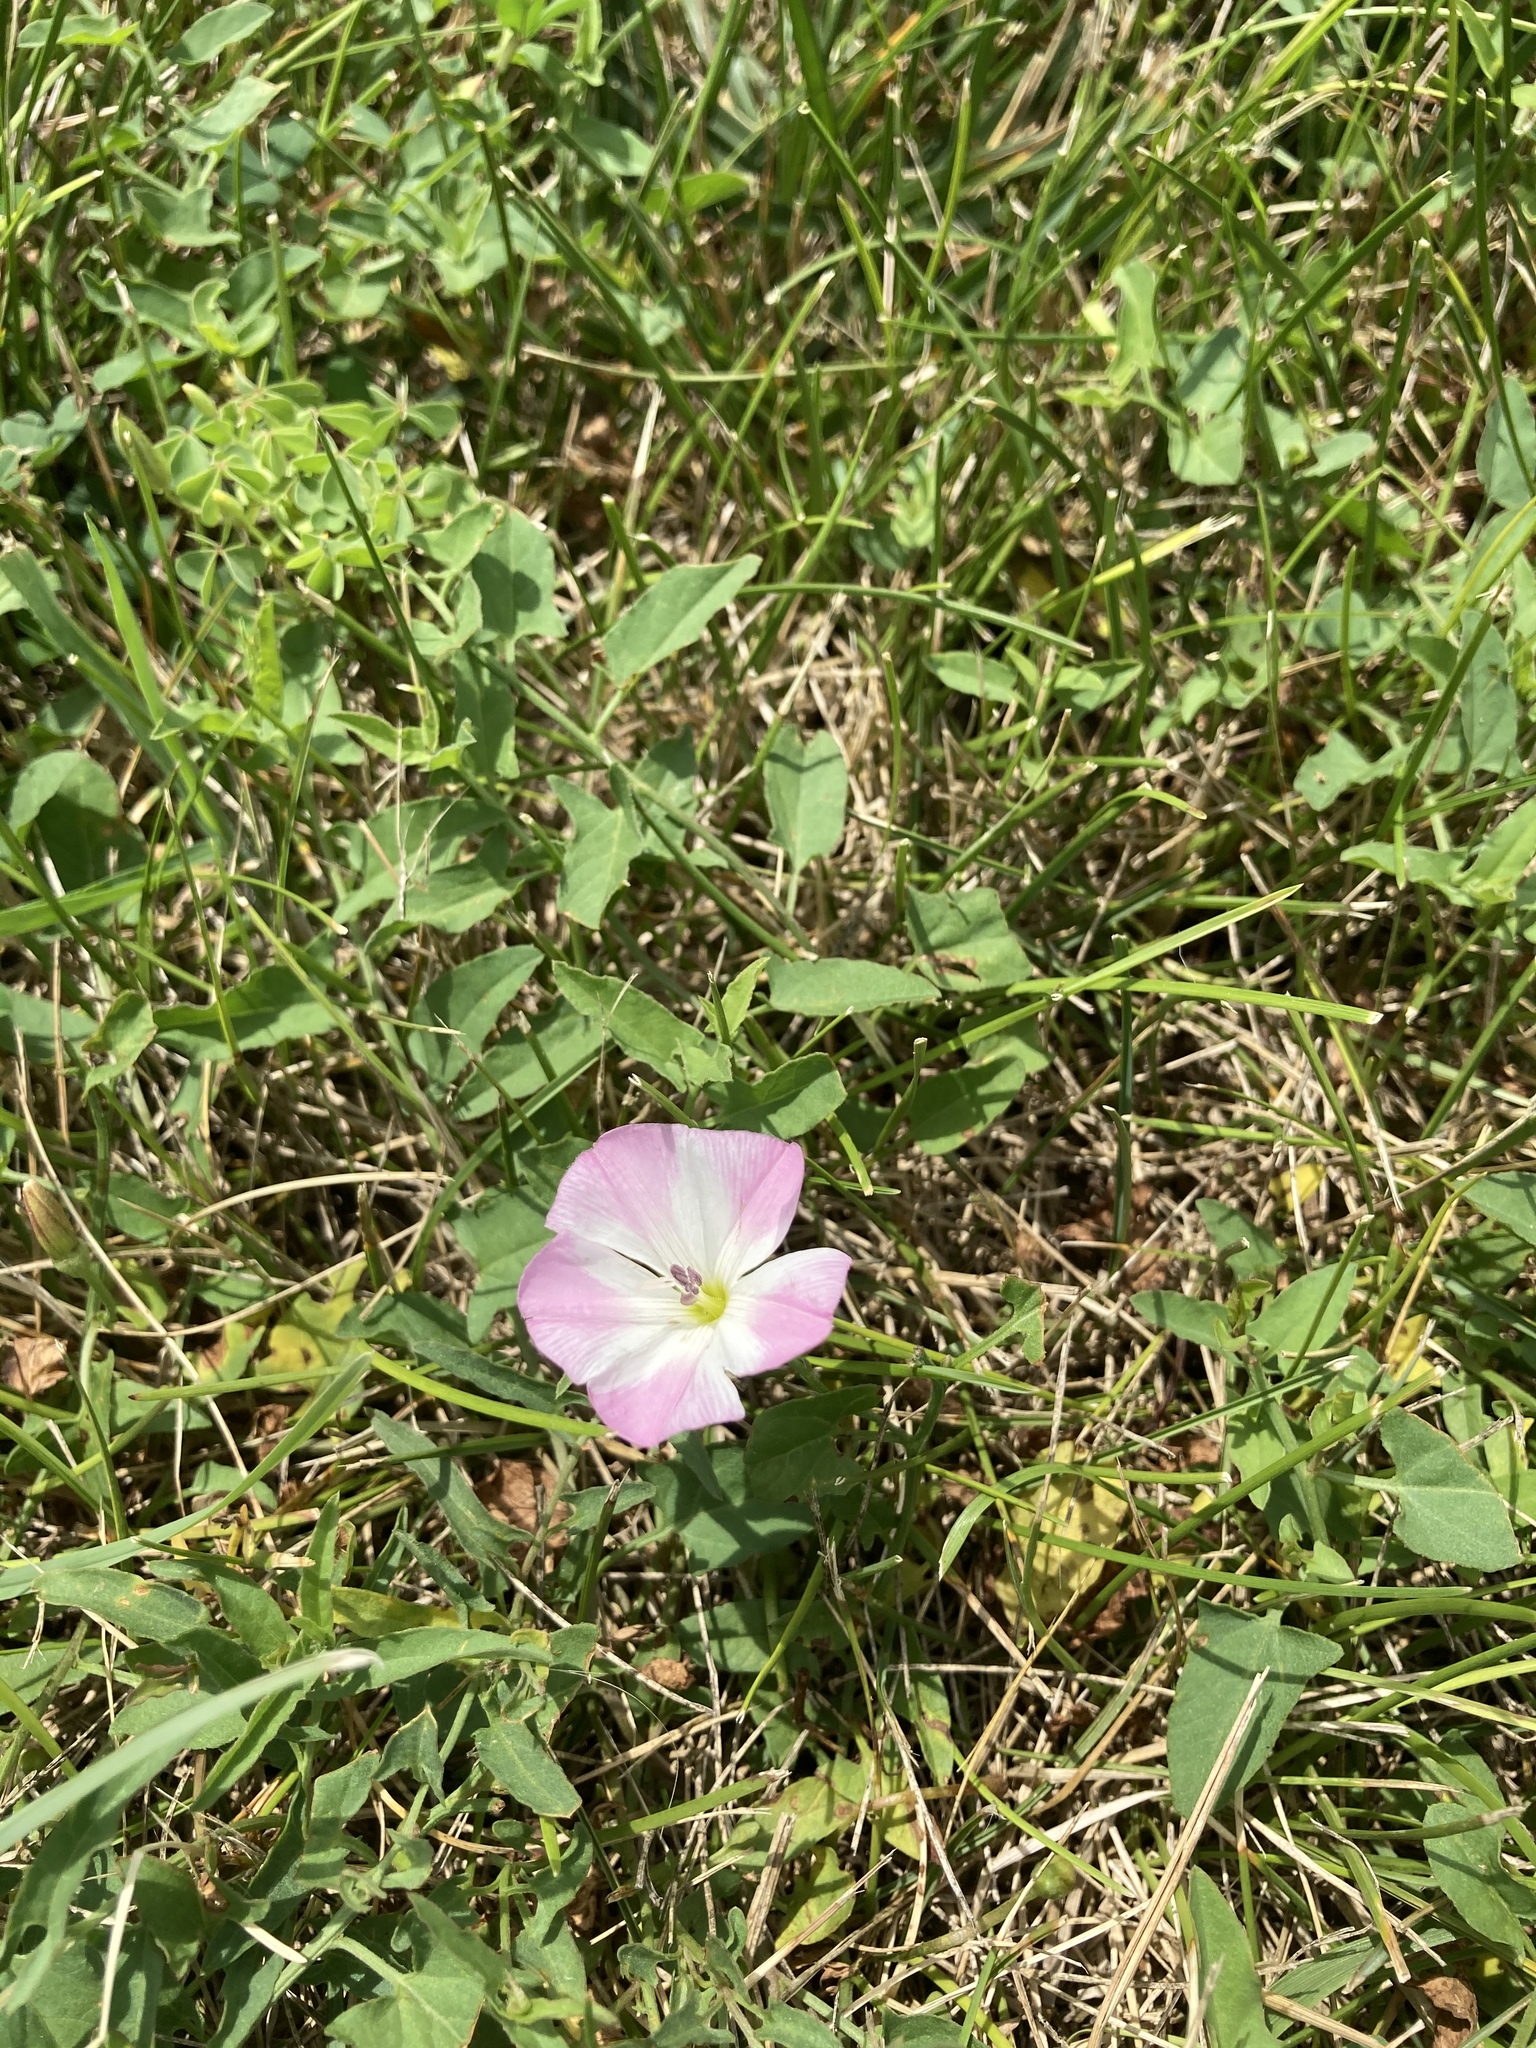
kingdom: Plantae
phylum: Tracheophyta
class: Magnoliopsida
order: Solanales
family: Convolvulaceae
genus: Convolvulus
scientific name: Convolvulus arvensis
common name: Field bindweed
